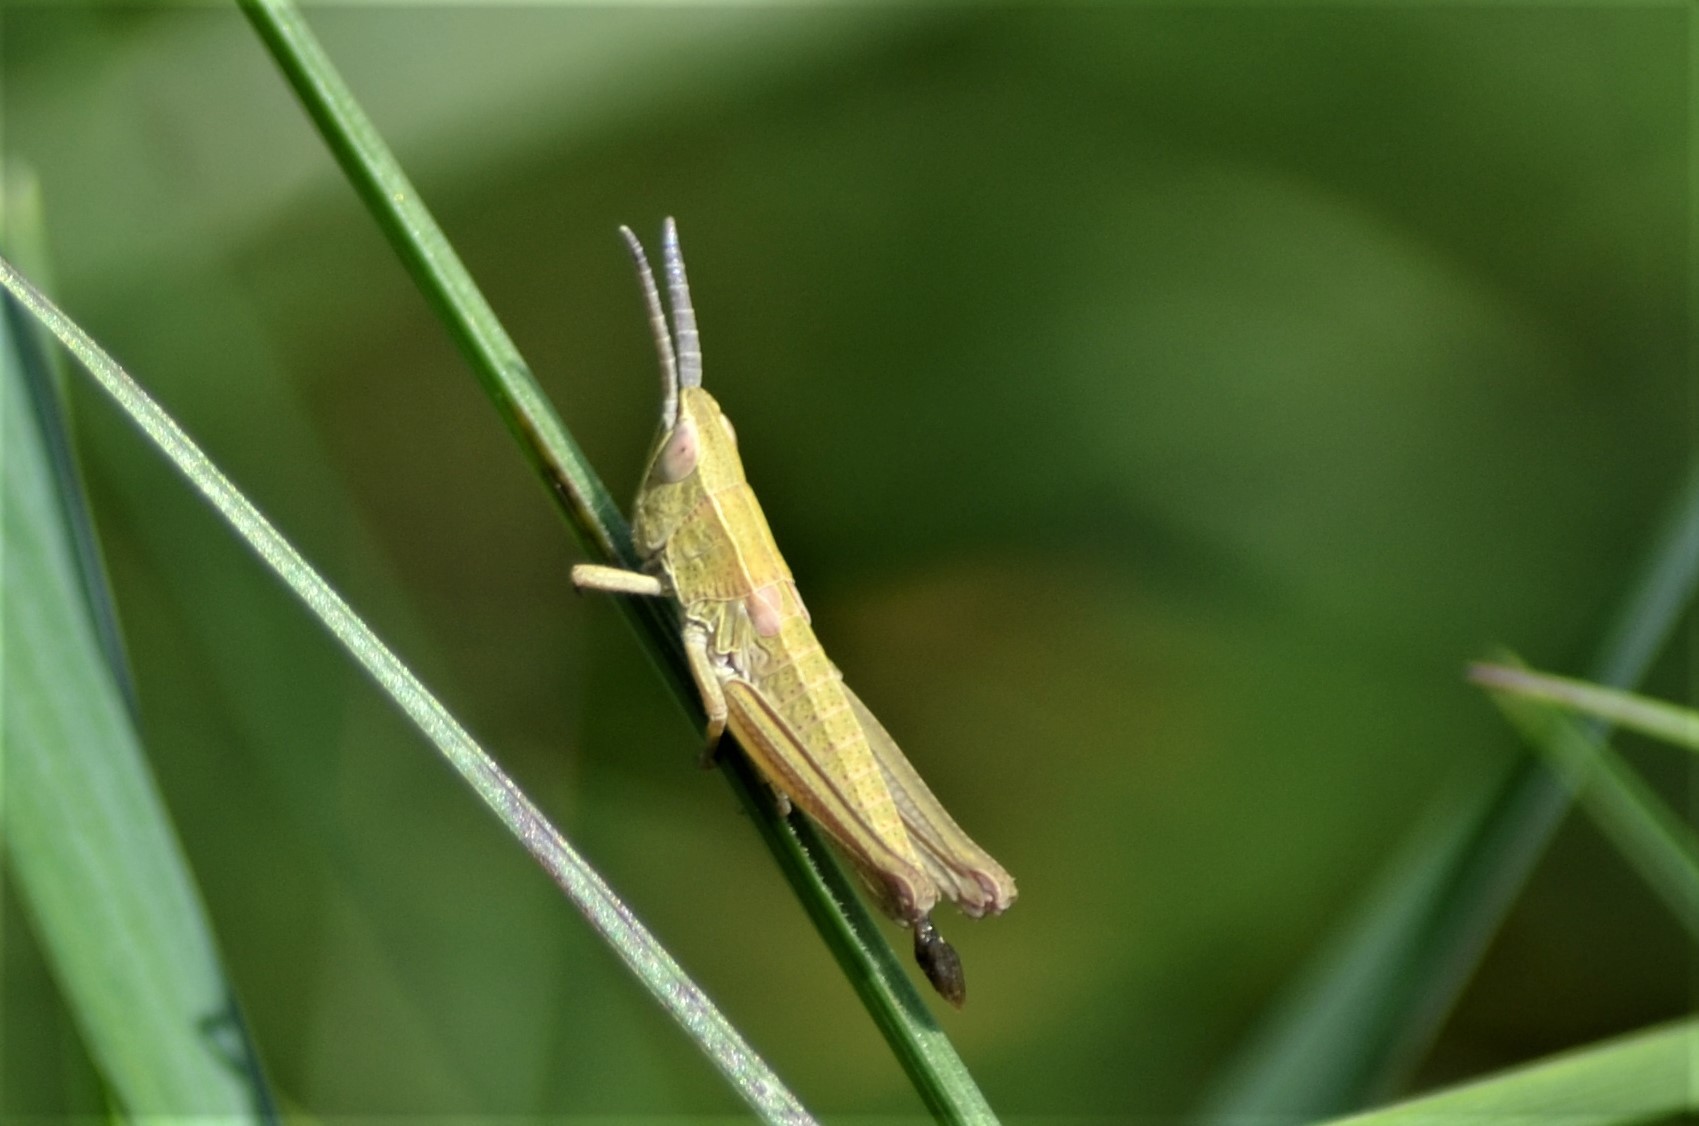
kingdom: Animalia
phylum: Arthropoda
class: Insecta
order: Orthoptera
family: Acrididae
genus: Euthystira
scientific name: Euthystira brachyptera
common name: Small gold grasshopper
